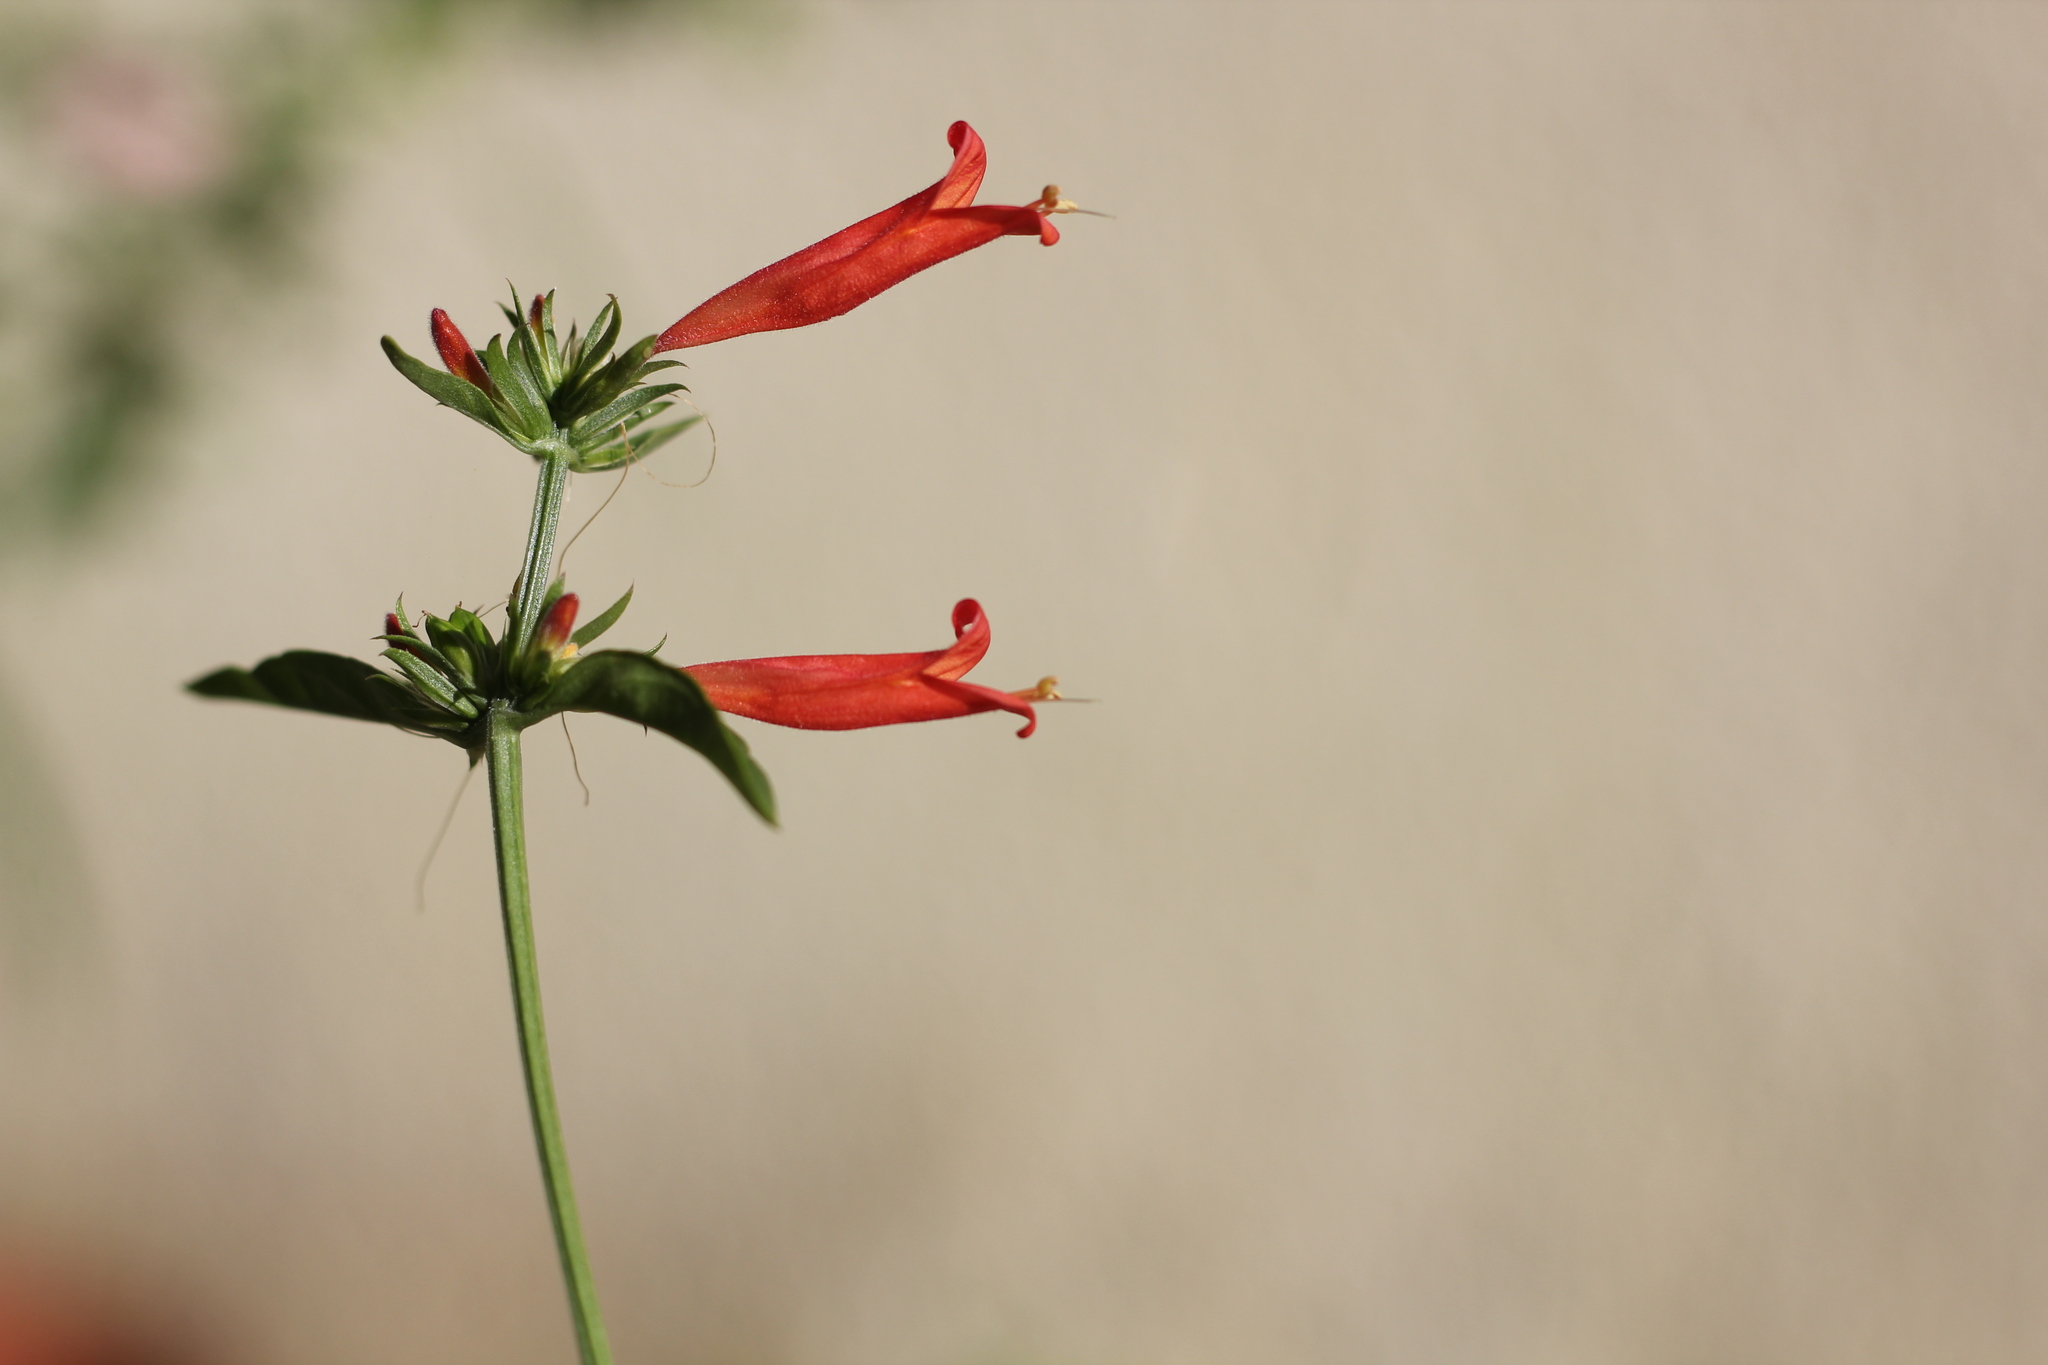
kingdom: Plantae
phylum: Tracheophyta
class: Magnoliopsida
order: Lamiales
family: Acanthaceae
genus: Dicliptera
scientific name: Dicliptera squarrosa
